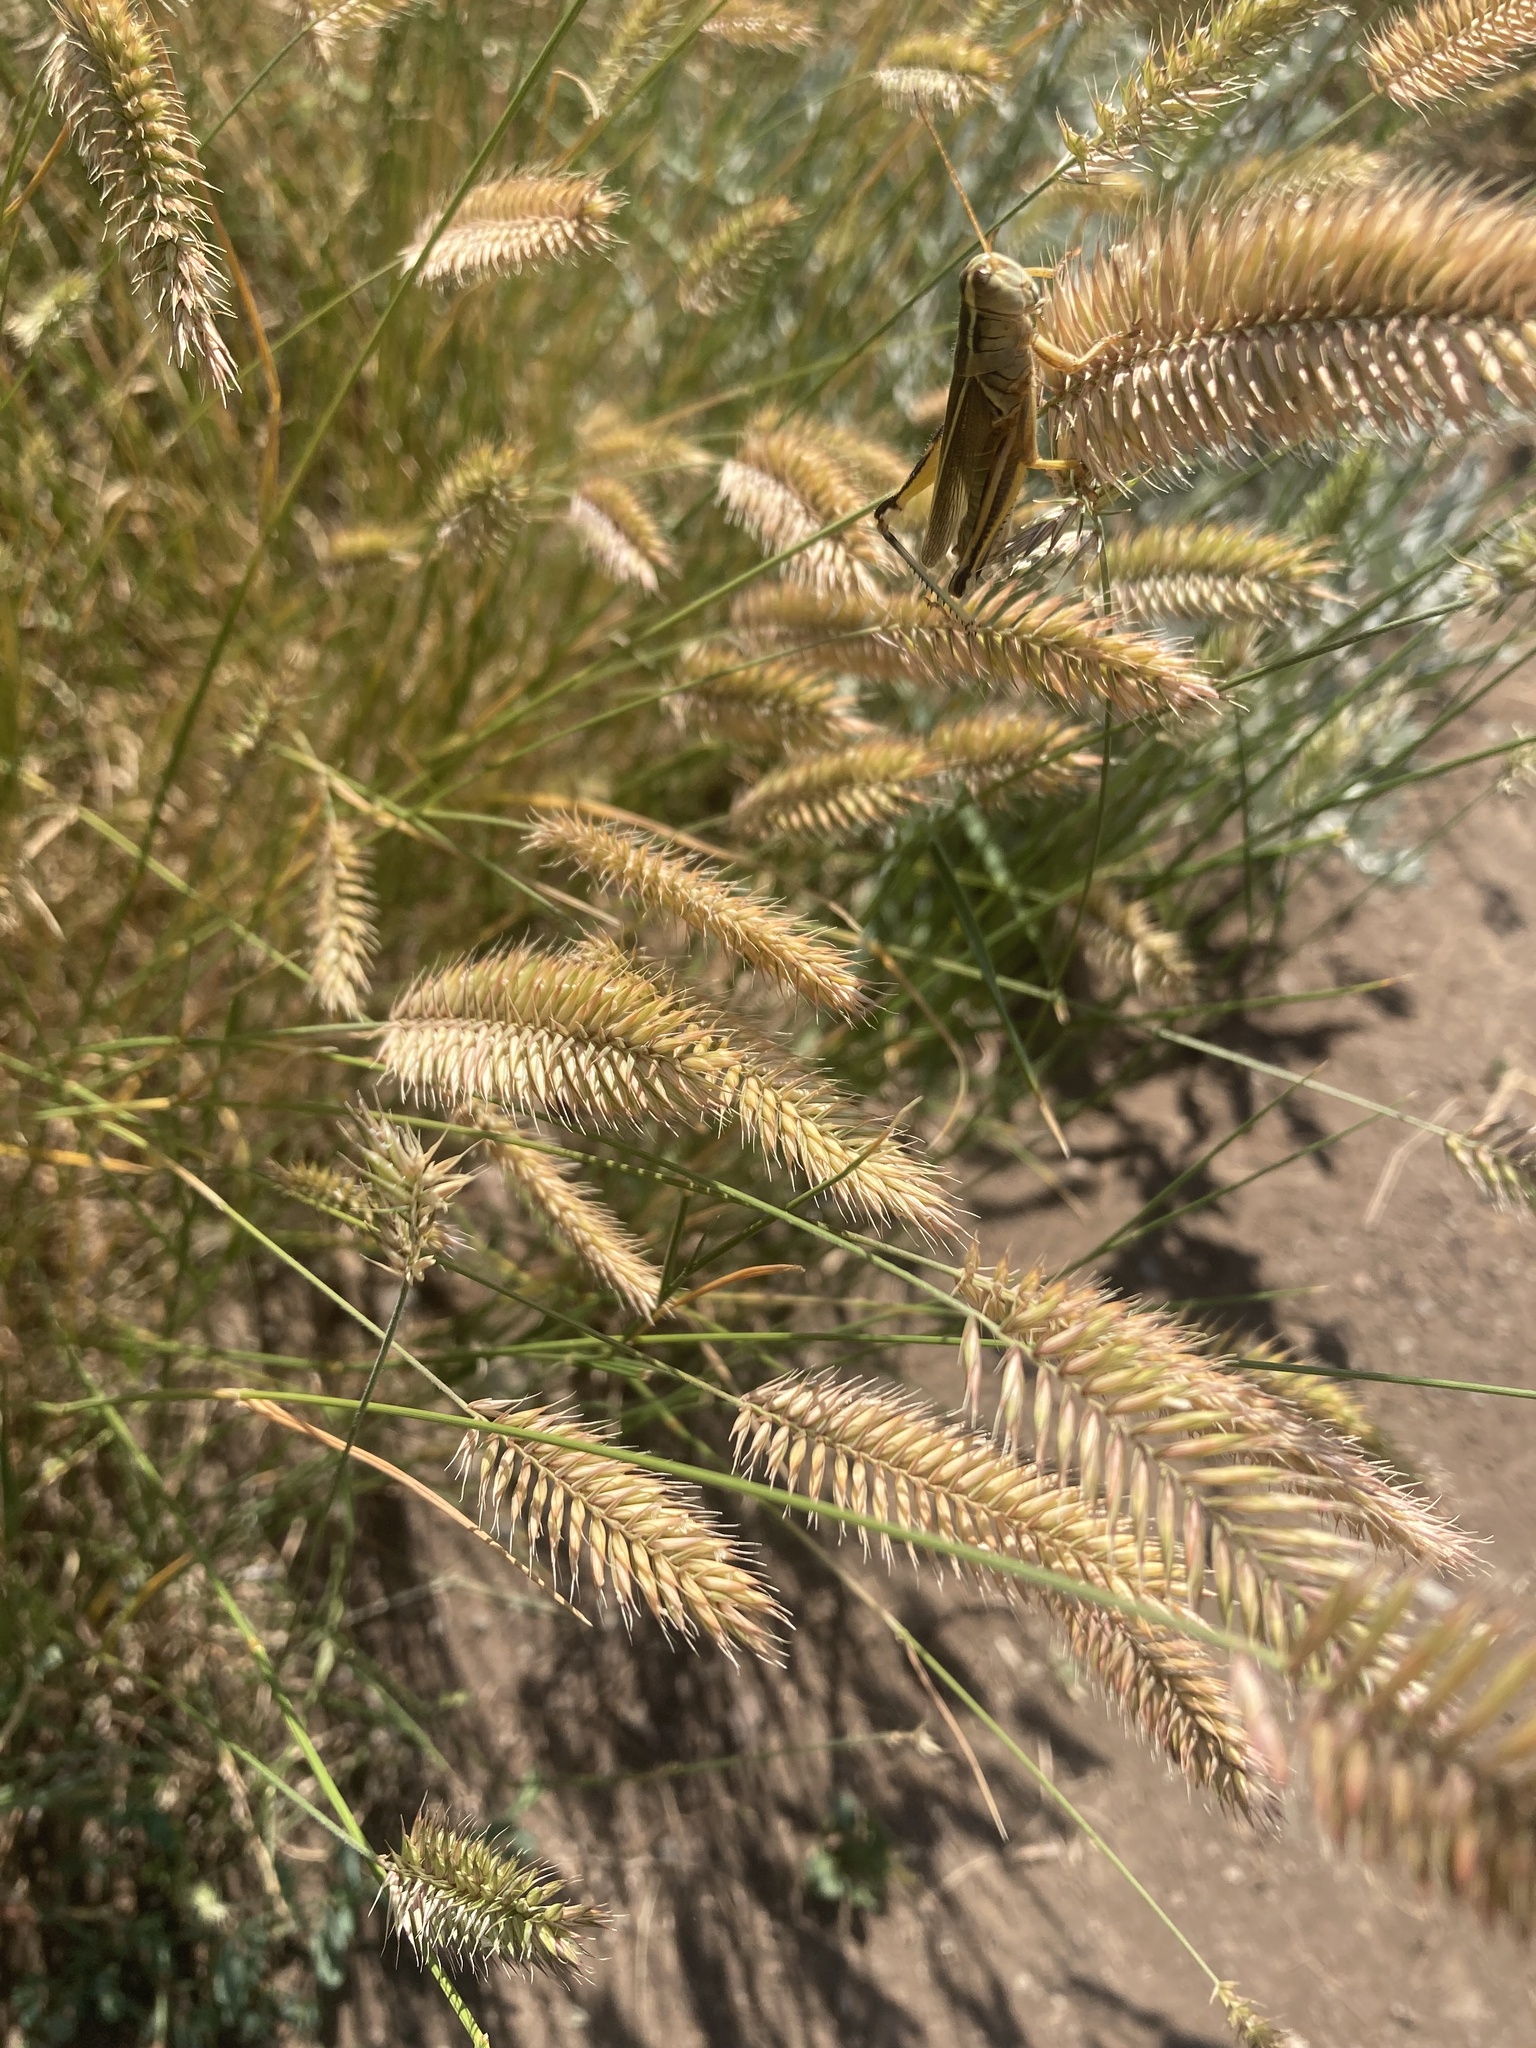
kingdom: Plantae
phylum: Tracheophyta
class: Liliopsida
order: Poales
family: Poaceae
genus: Agropyron
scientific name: Agropyron cristatum
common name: Crested wheatgrass
